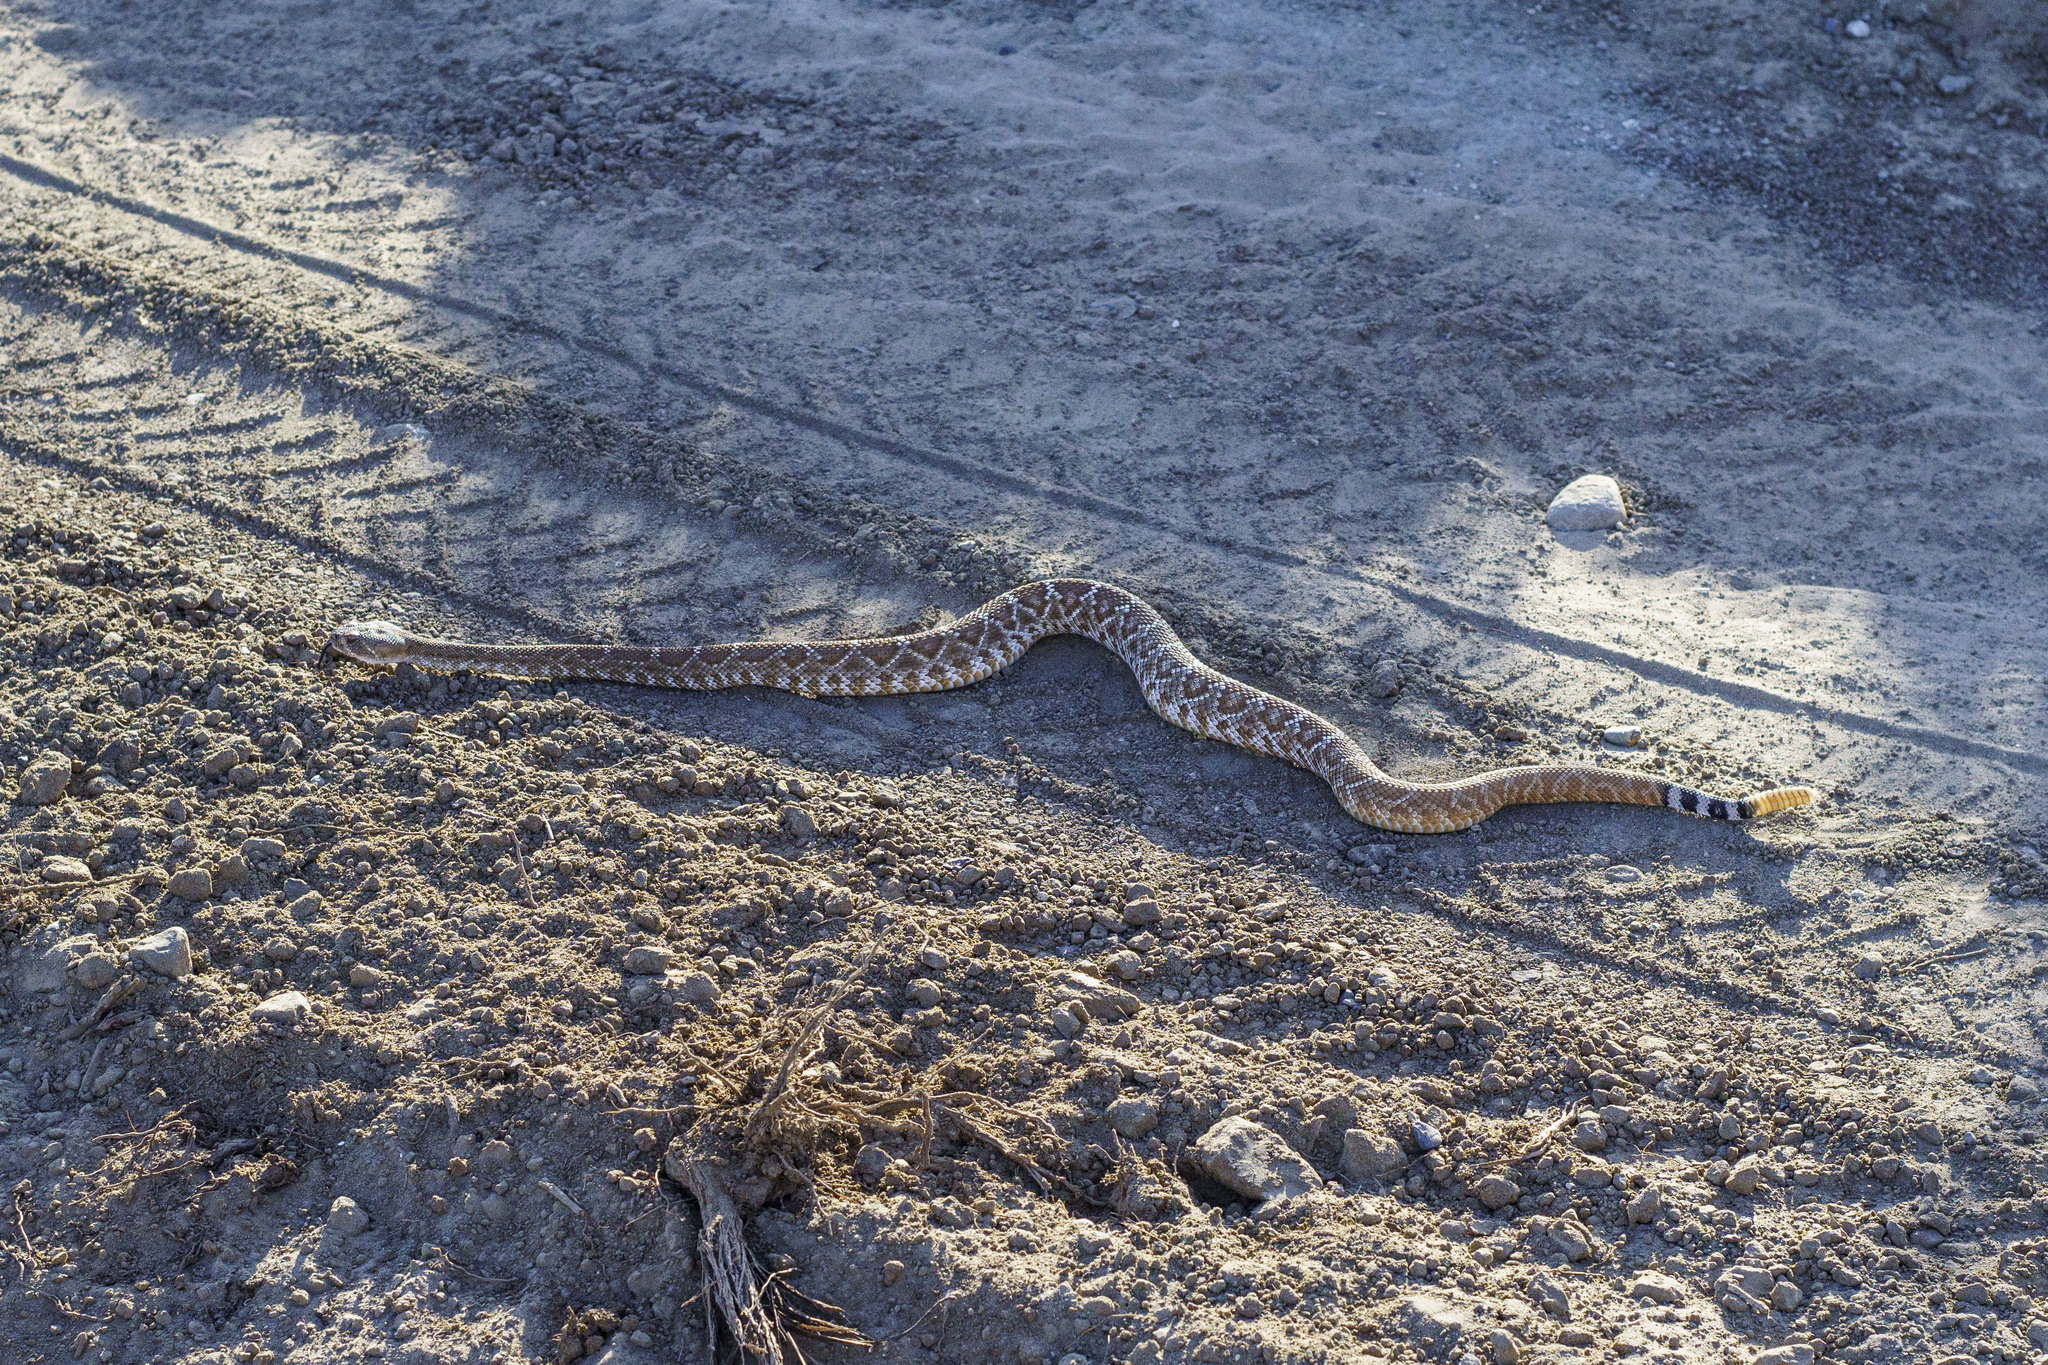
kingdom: Animalia
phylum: Chordata
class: Squamata
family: Viperidae
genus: Crotalus
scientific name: Crotalus ruber
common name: Red diamond rattlesnake
